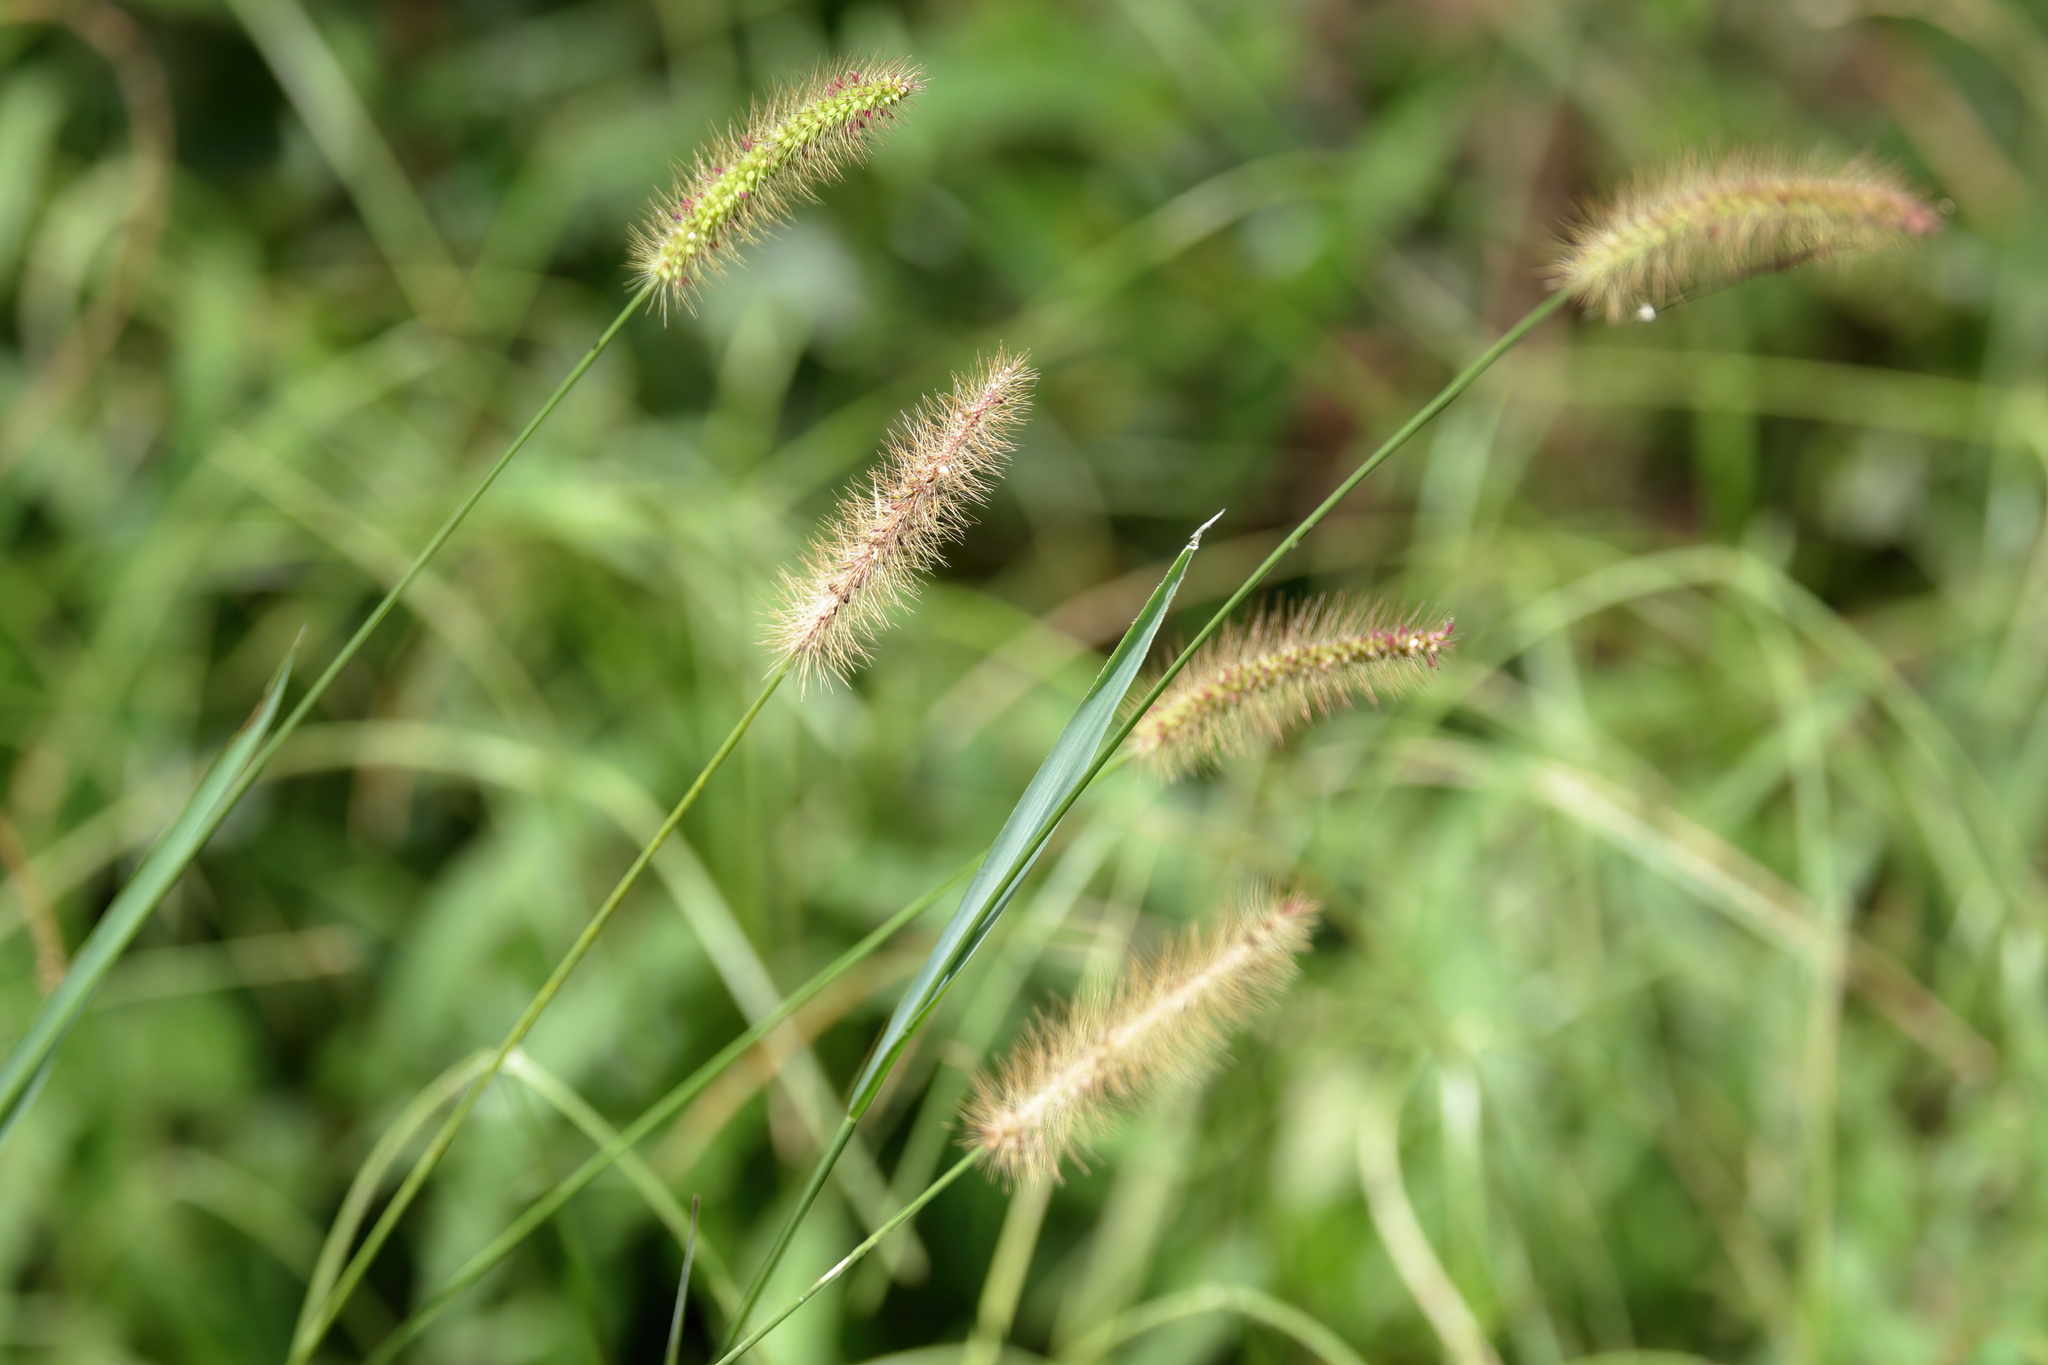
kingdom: Plantae
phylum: Tracheophyta
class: Liliopsida
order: Poales
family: Poaceae
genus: Setaria
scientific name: Setaria parviflora
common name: Knotroot bristle-grass
